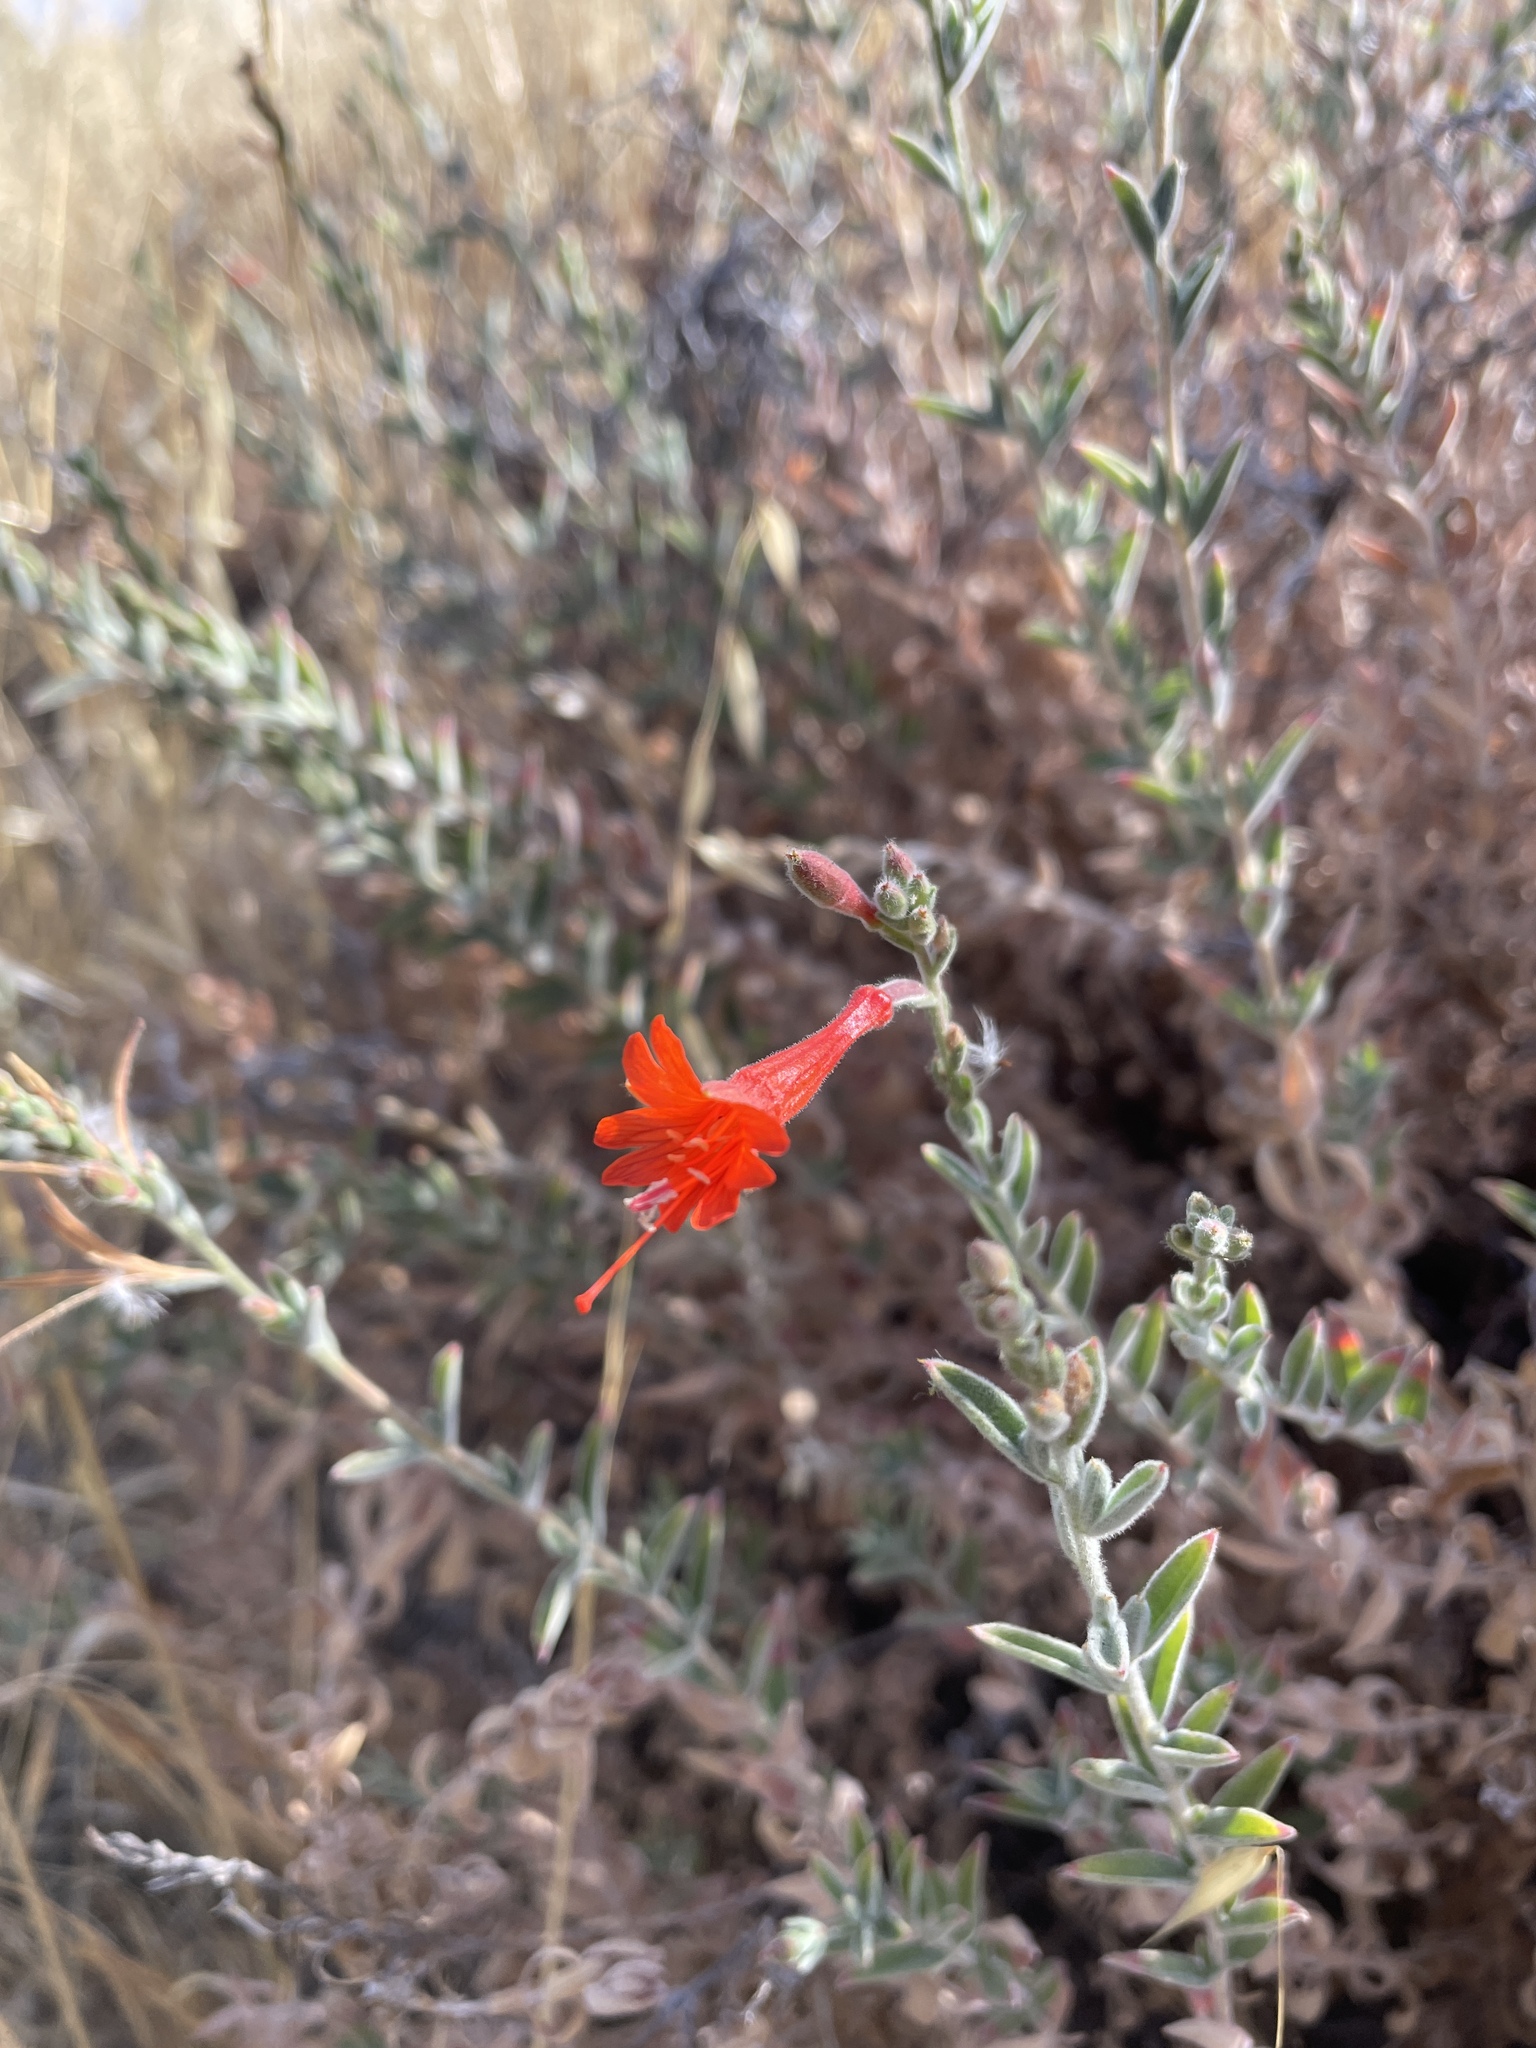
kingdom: Plantae
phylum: Tracheophyta
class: Magnoliopsida
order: Myrtales
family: Onagraceae
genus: Epilobium
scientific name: Epilobium canum
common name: California-fuchsia
